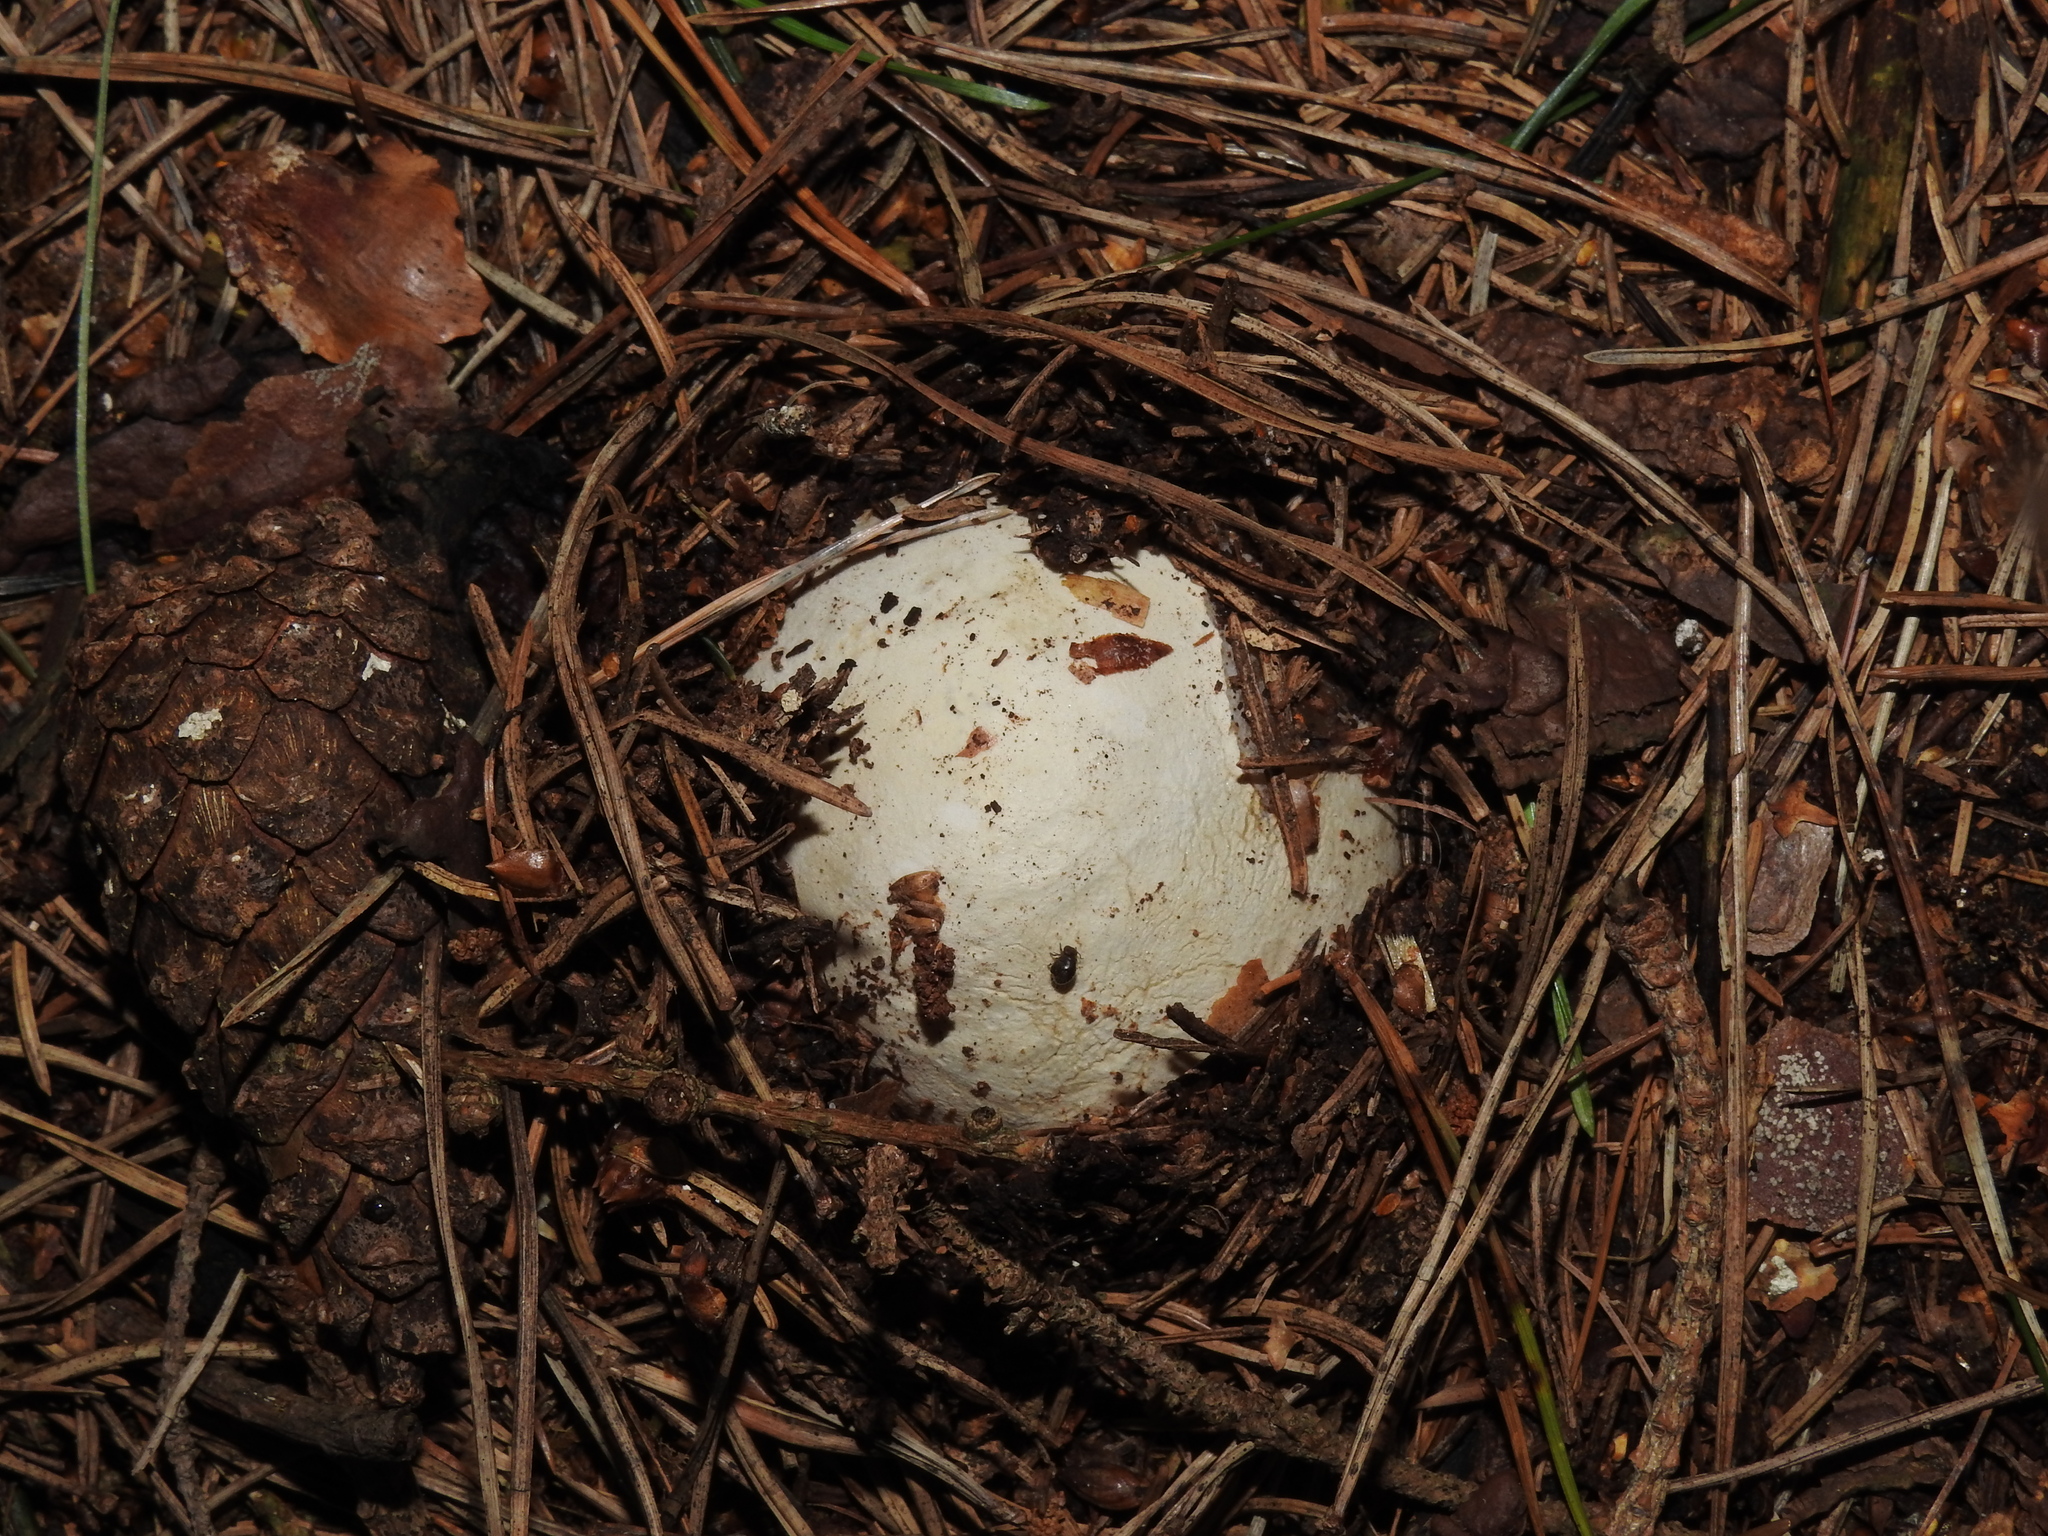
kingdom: Fungi
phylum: Basidiomycota
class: Agaricomycetes
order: Phallales
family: Phallaceae
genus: Phallus
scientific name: Phallus impudicus
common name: Common stinkhorn
